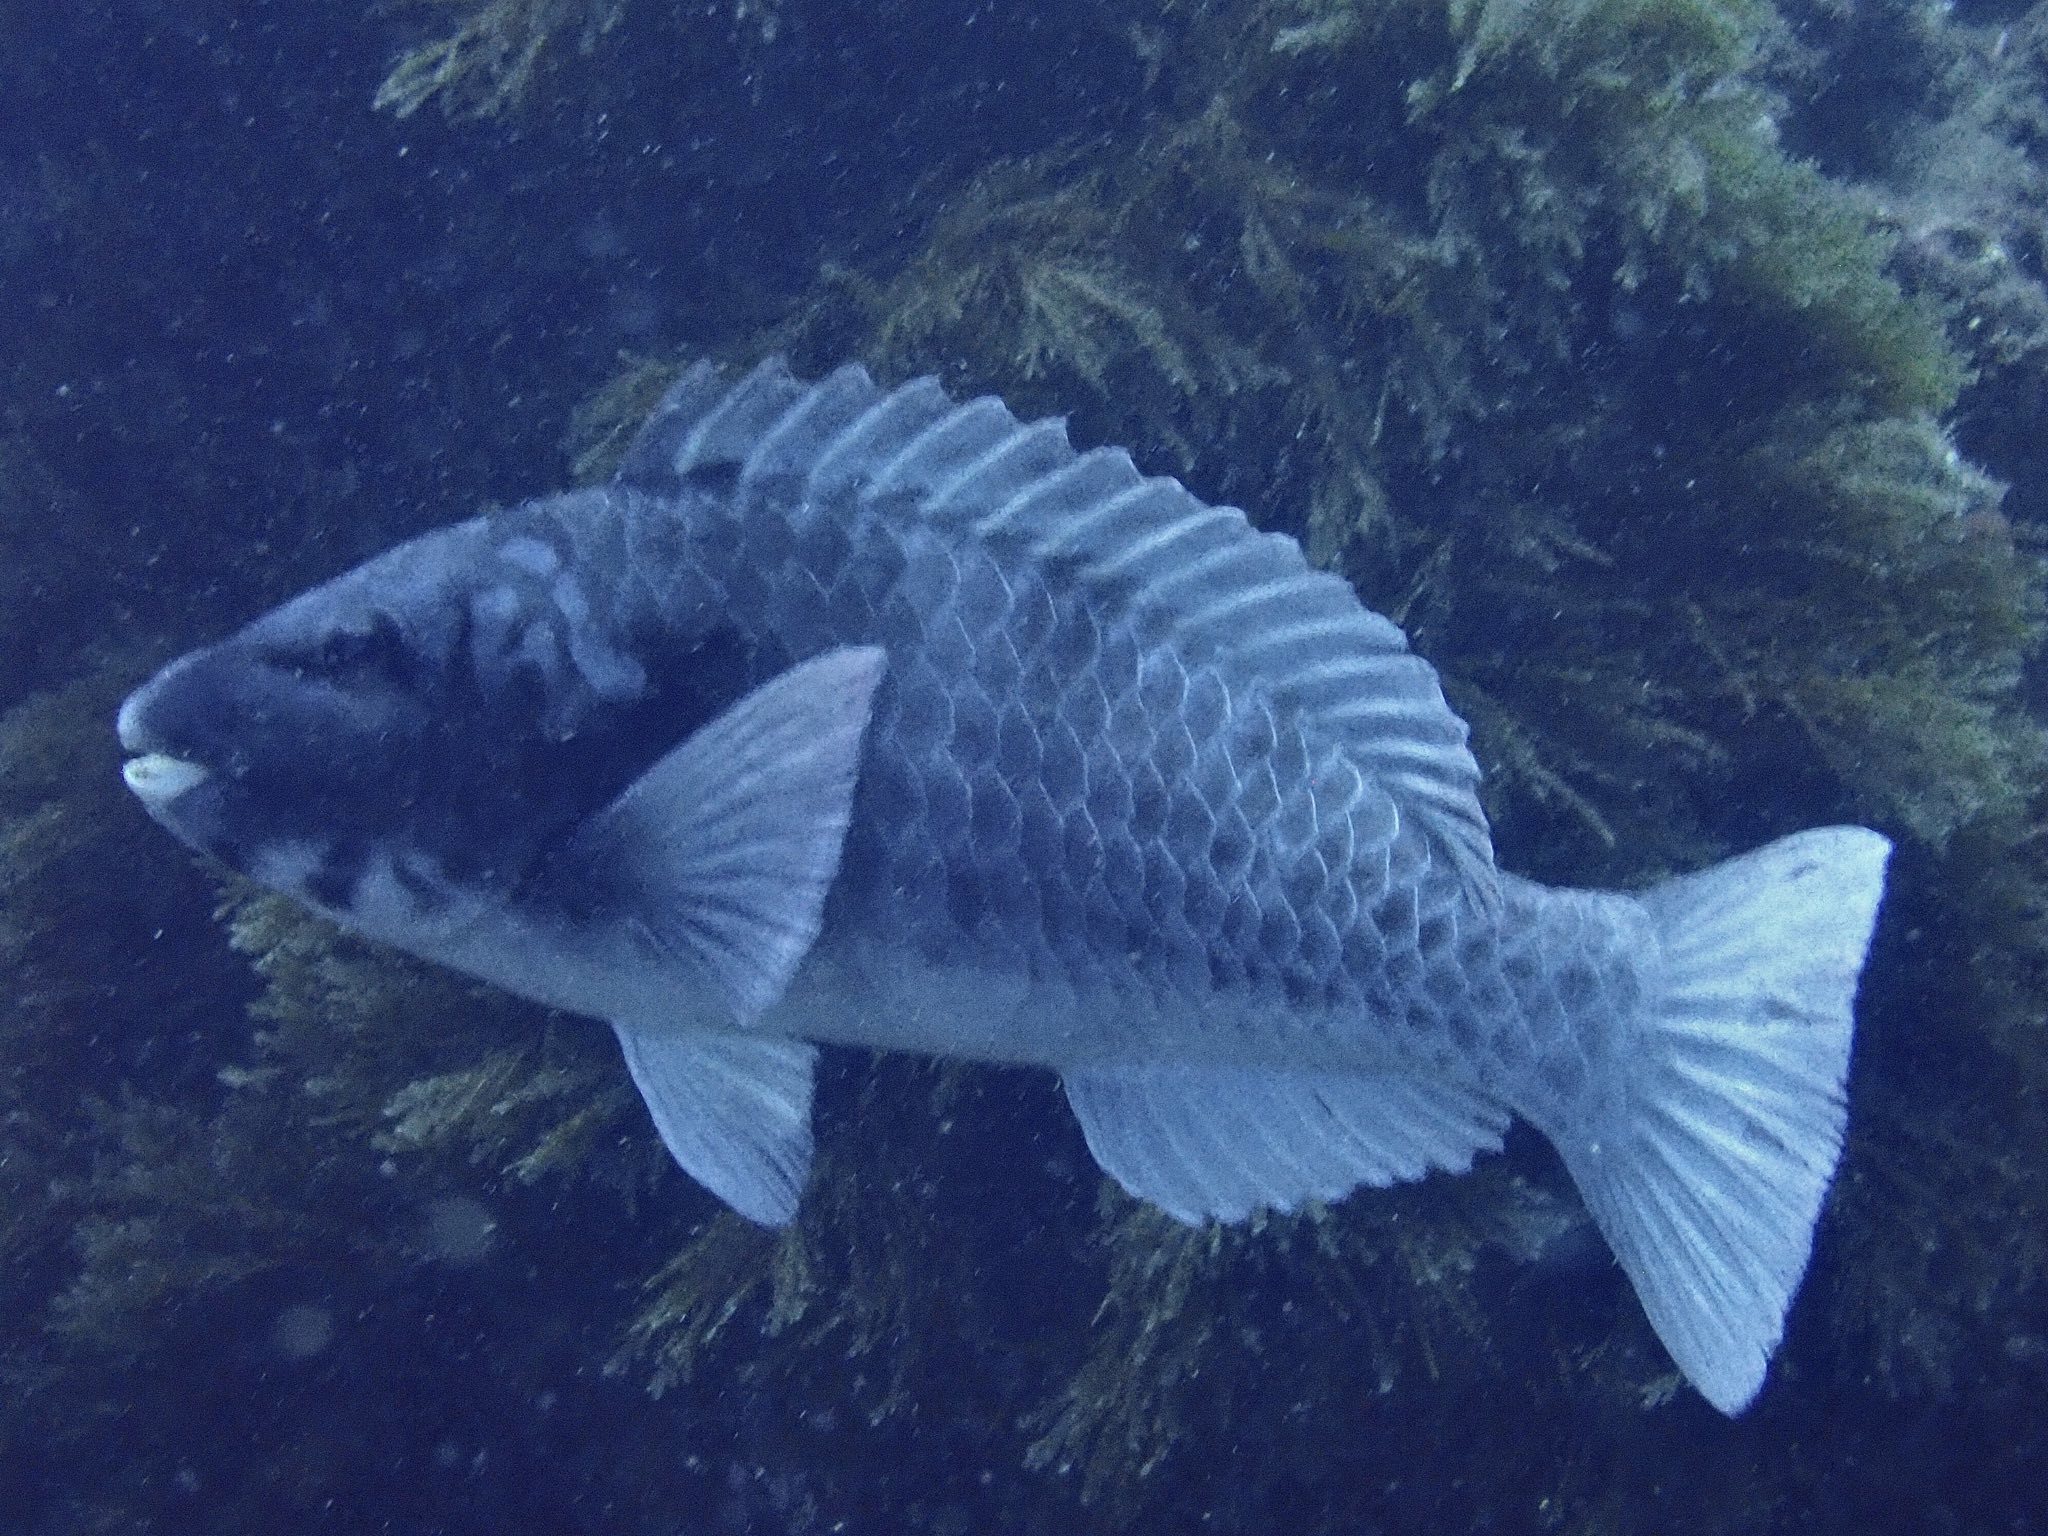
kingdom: Animalia
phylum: Chordata
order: Perciformes
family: Scaridae
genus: Sparisoma
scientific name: Sparisoma cretense
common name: Parrotfish
